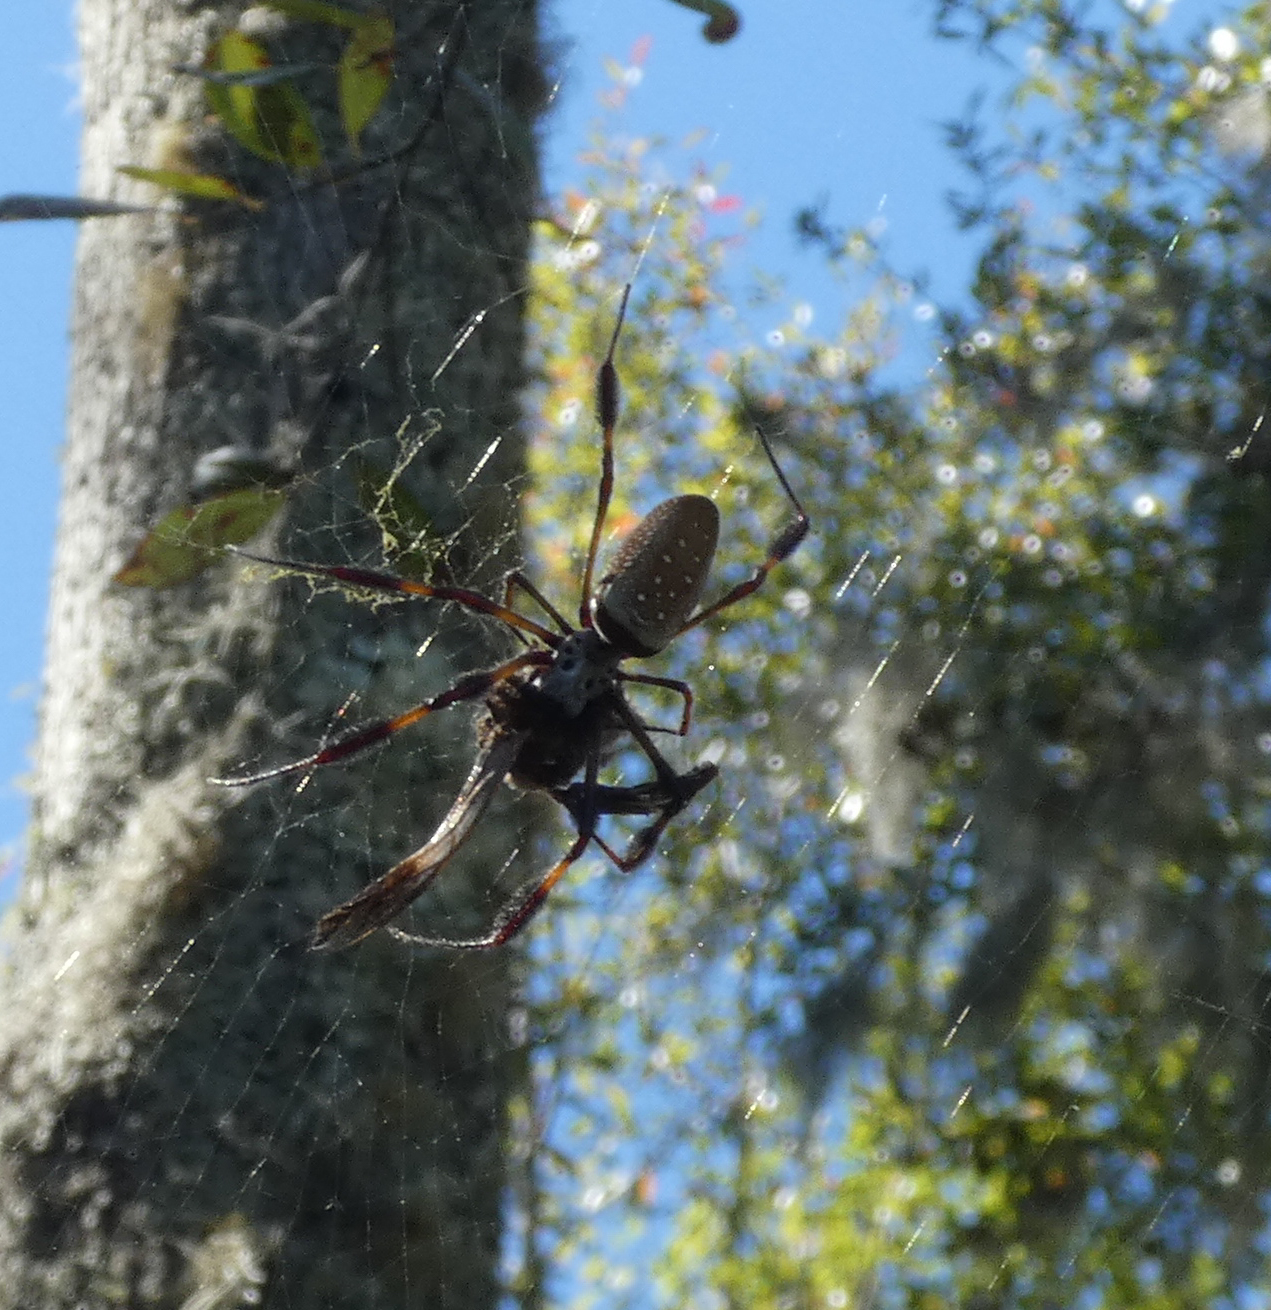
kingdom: Animalia
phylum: Arthropoda
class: Arachnida
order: Araneae
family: Araneidae
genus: Trichonephila
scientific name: Trichonephila clavipes
